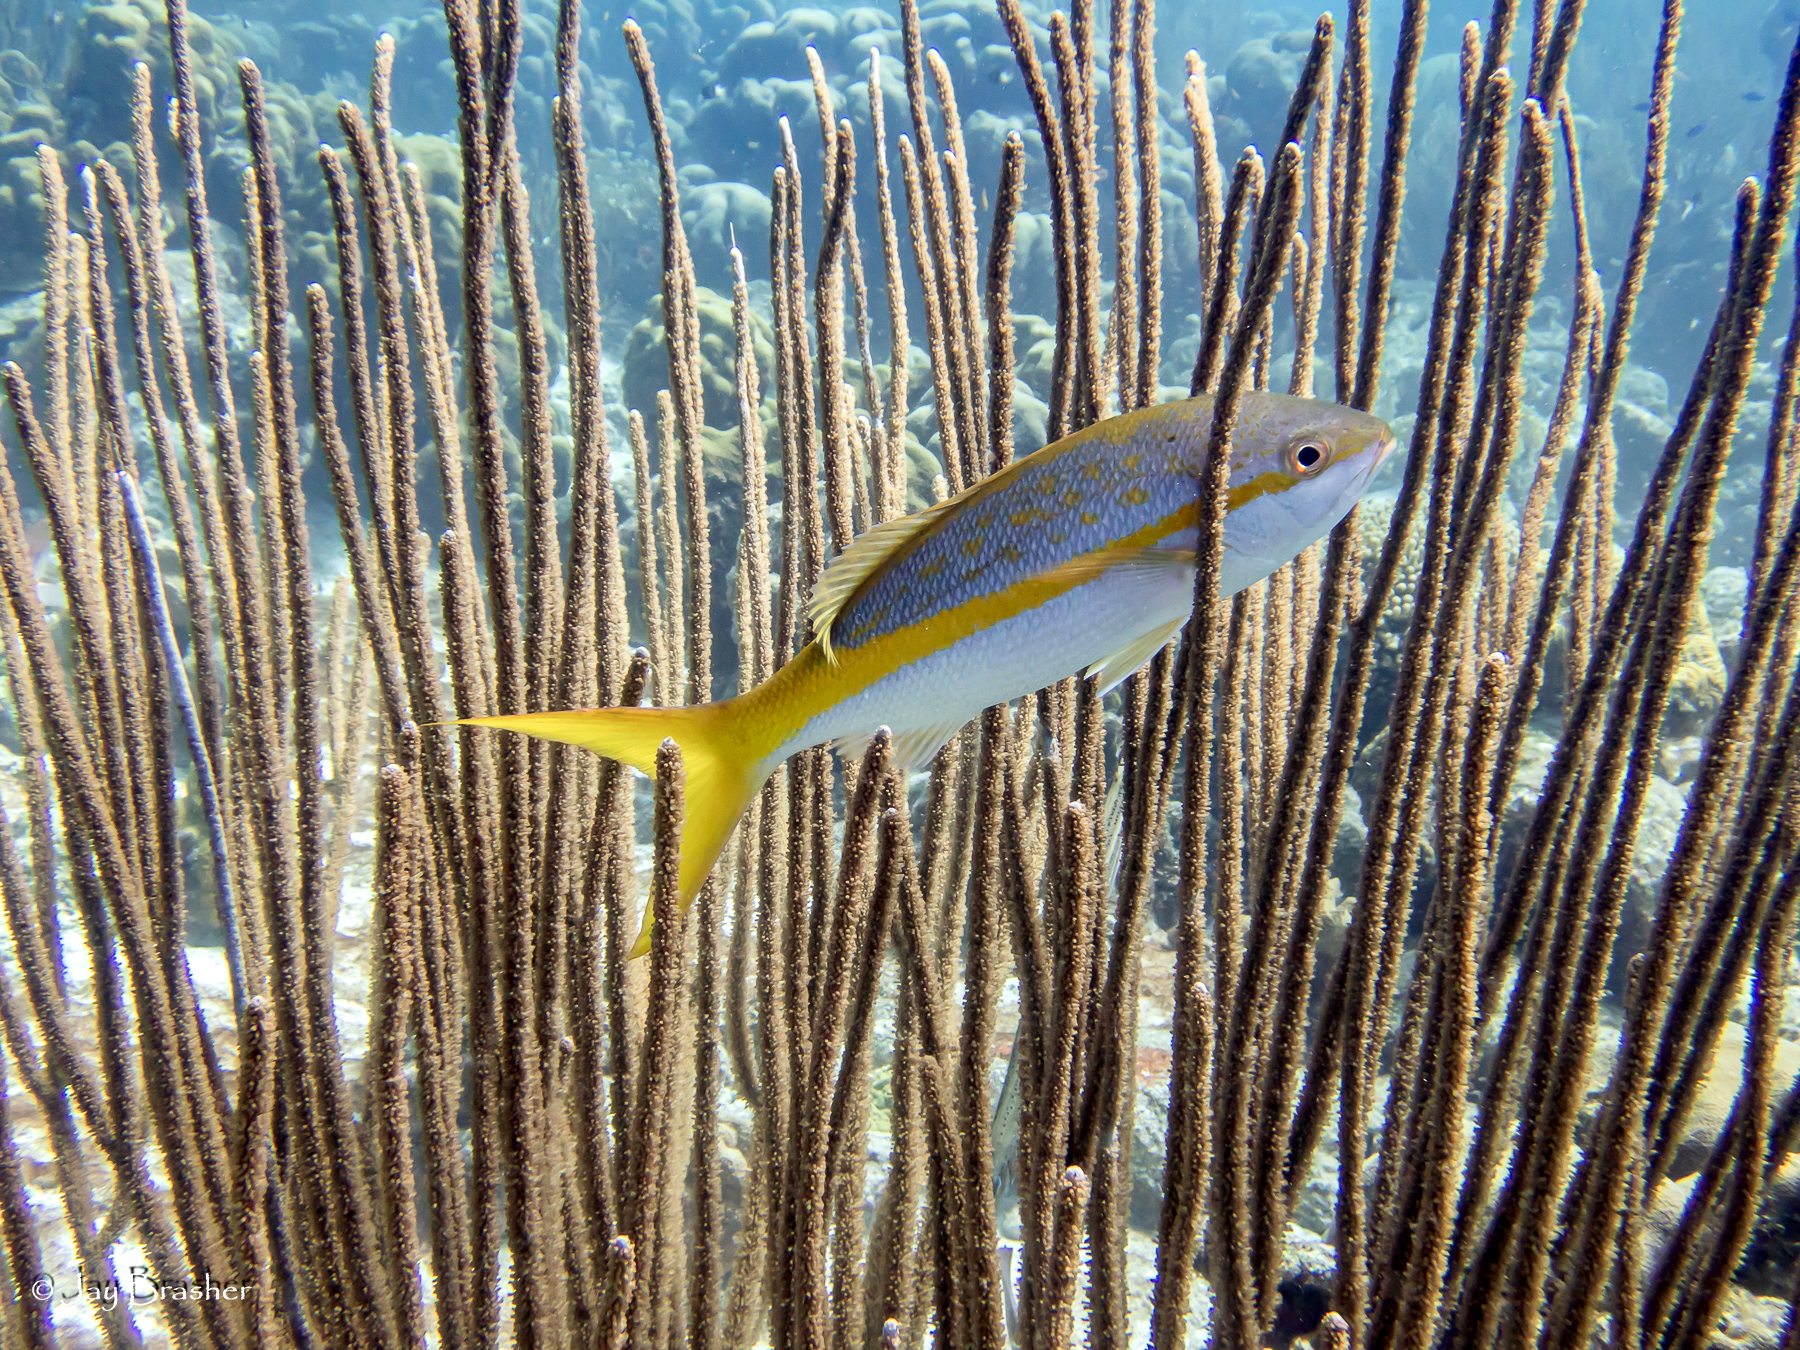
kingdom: Animalia
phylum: Chordata
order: Perciformes
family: Lutjanidae
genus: Ocyurus
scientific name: Ocyurus chrysurus
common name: Yellowtail snapper
